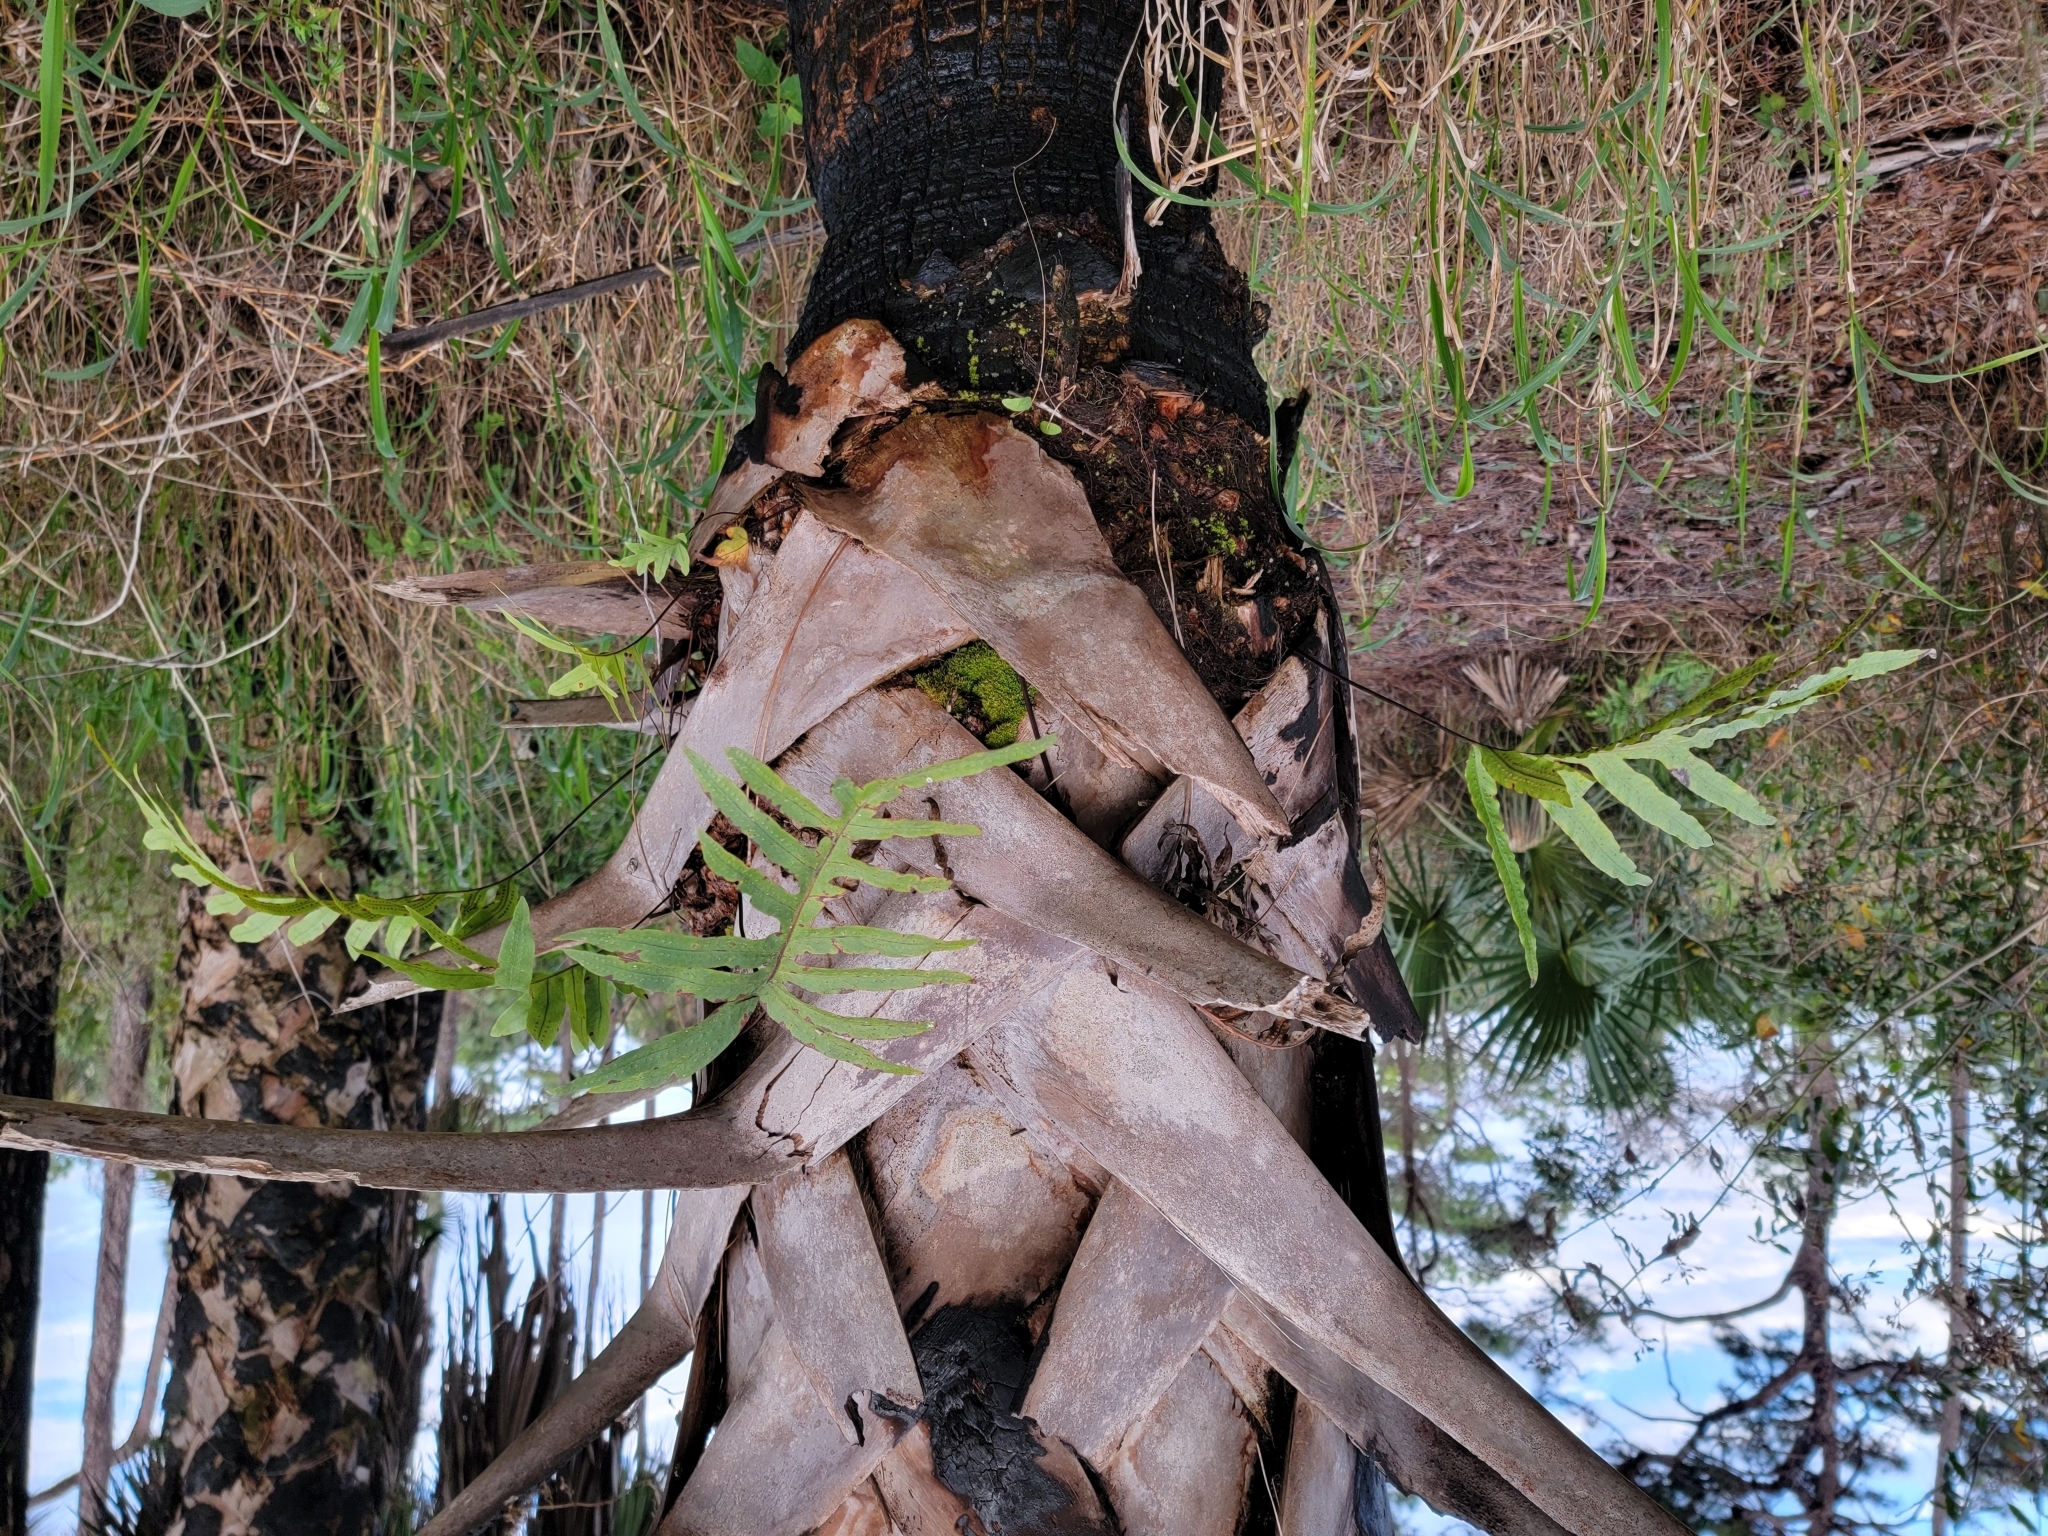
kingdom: Plantae
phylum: Tracheophyta
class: Polypodiopsida
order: Polypodiales
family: Polypodiaceae
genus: Phlebodium
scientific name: Phlebodium aureum
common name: Gold-foot fern
